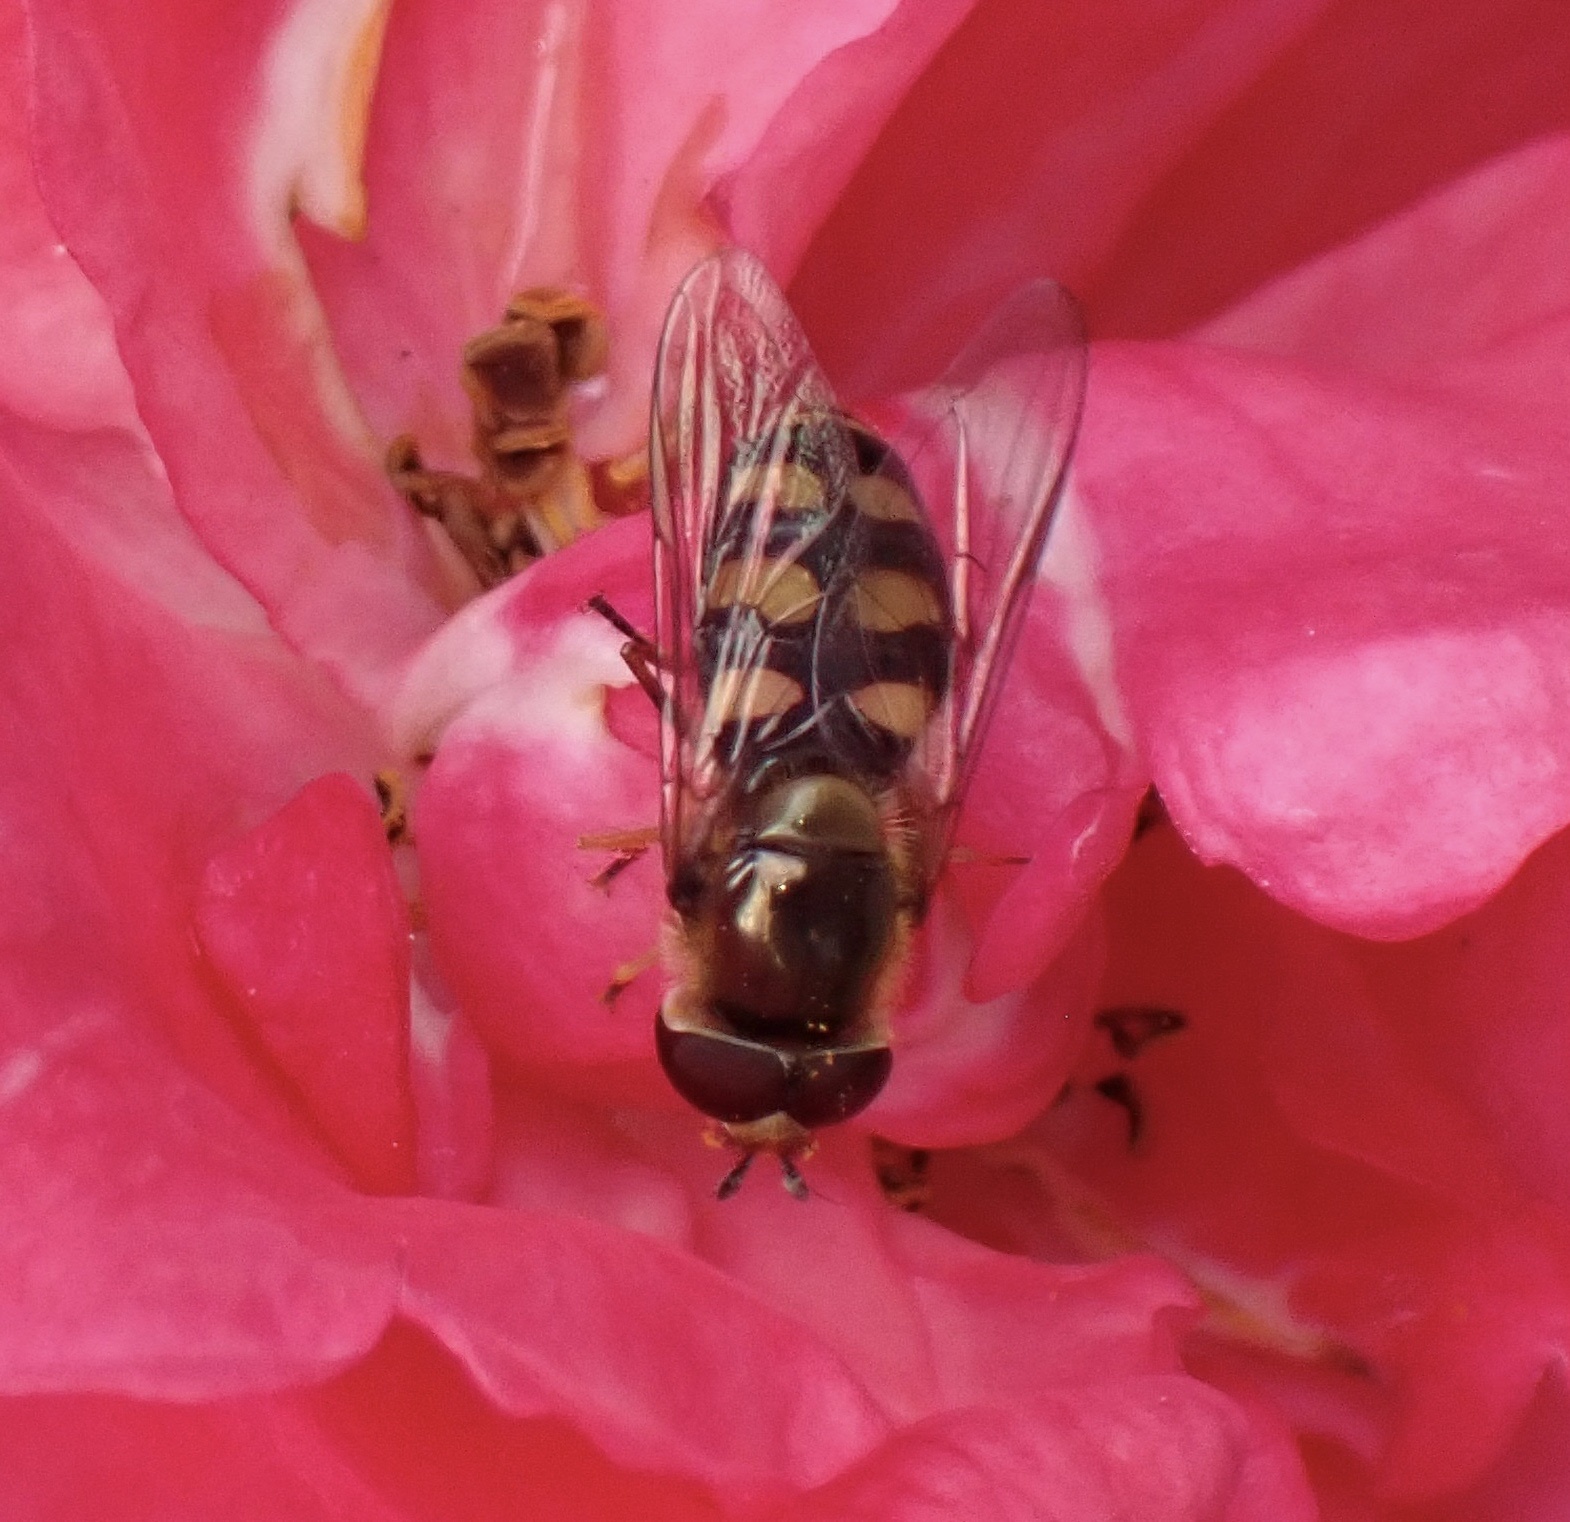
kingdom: Animalia
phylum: Arthropoda
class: Insecta
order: Diptera
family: Syrphidae
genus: Eupeodes
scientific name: Eupeodes
